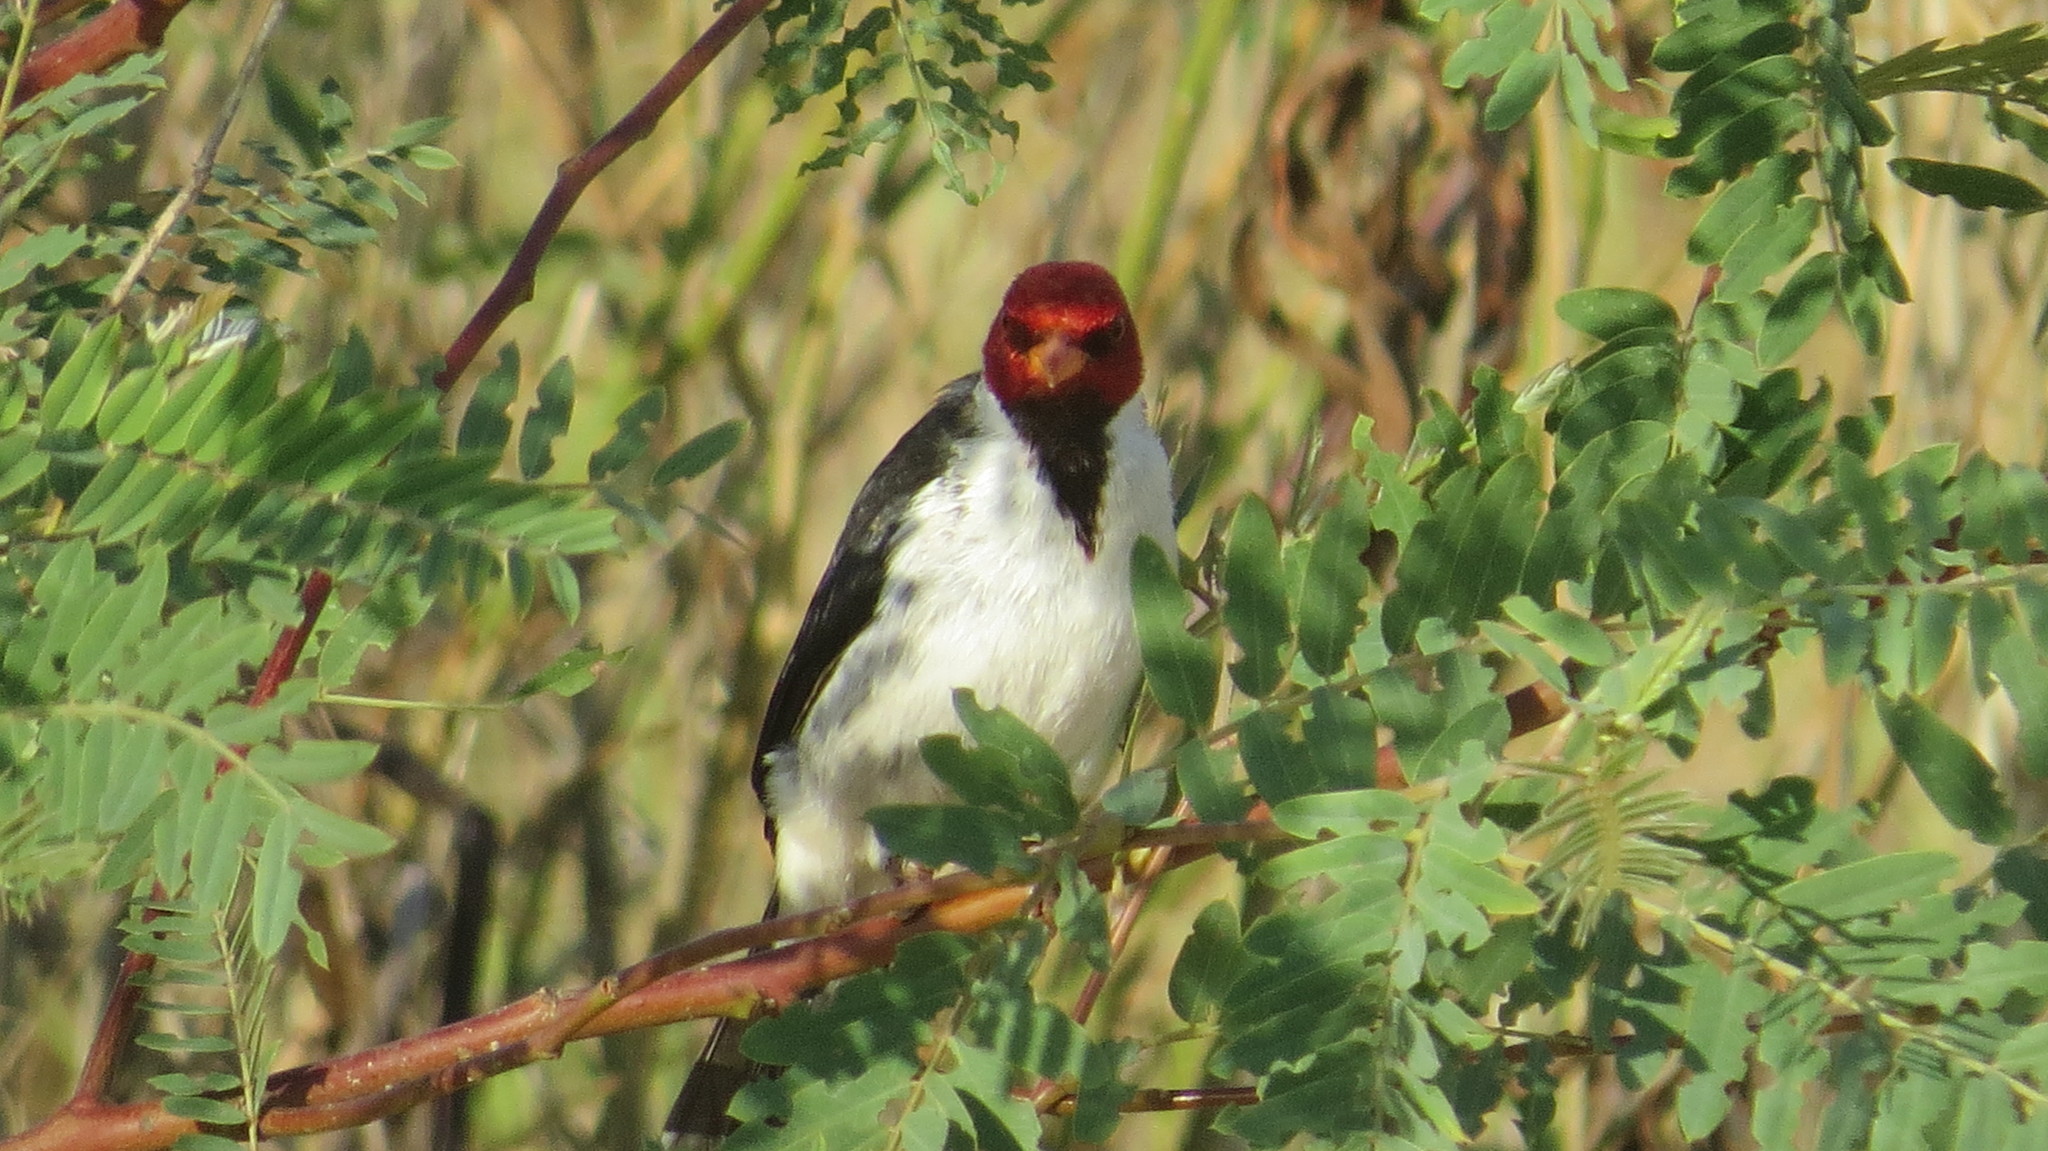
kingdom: Animalia
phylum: Chordata
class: Aves
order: Passeriformes
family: Thraupidae
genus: Paroaria
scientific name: Paroaria capitata
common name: Yellow-billed cardinal
